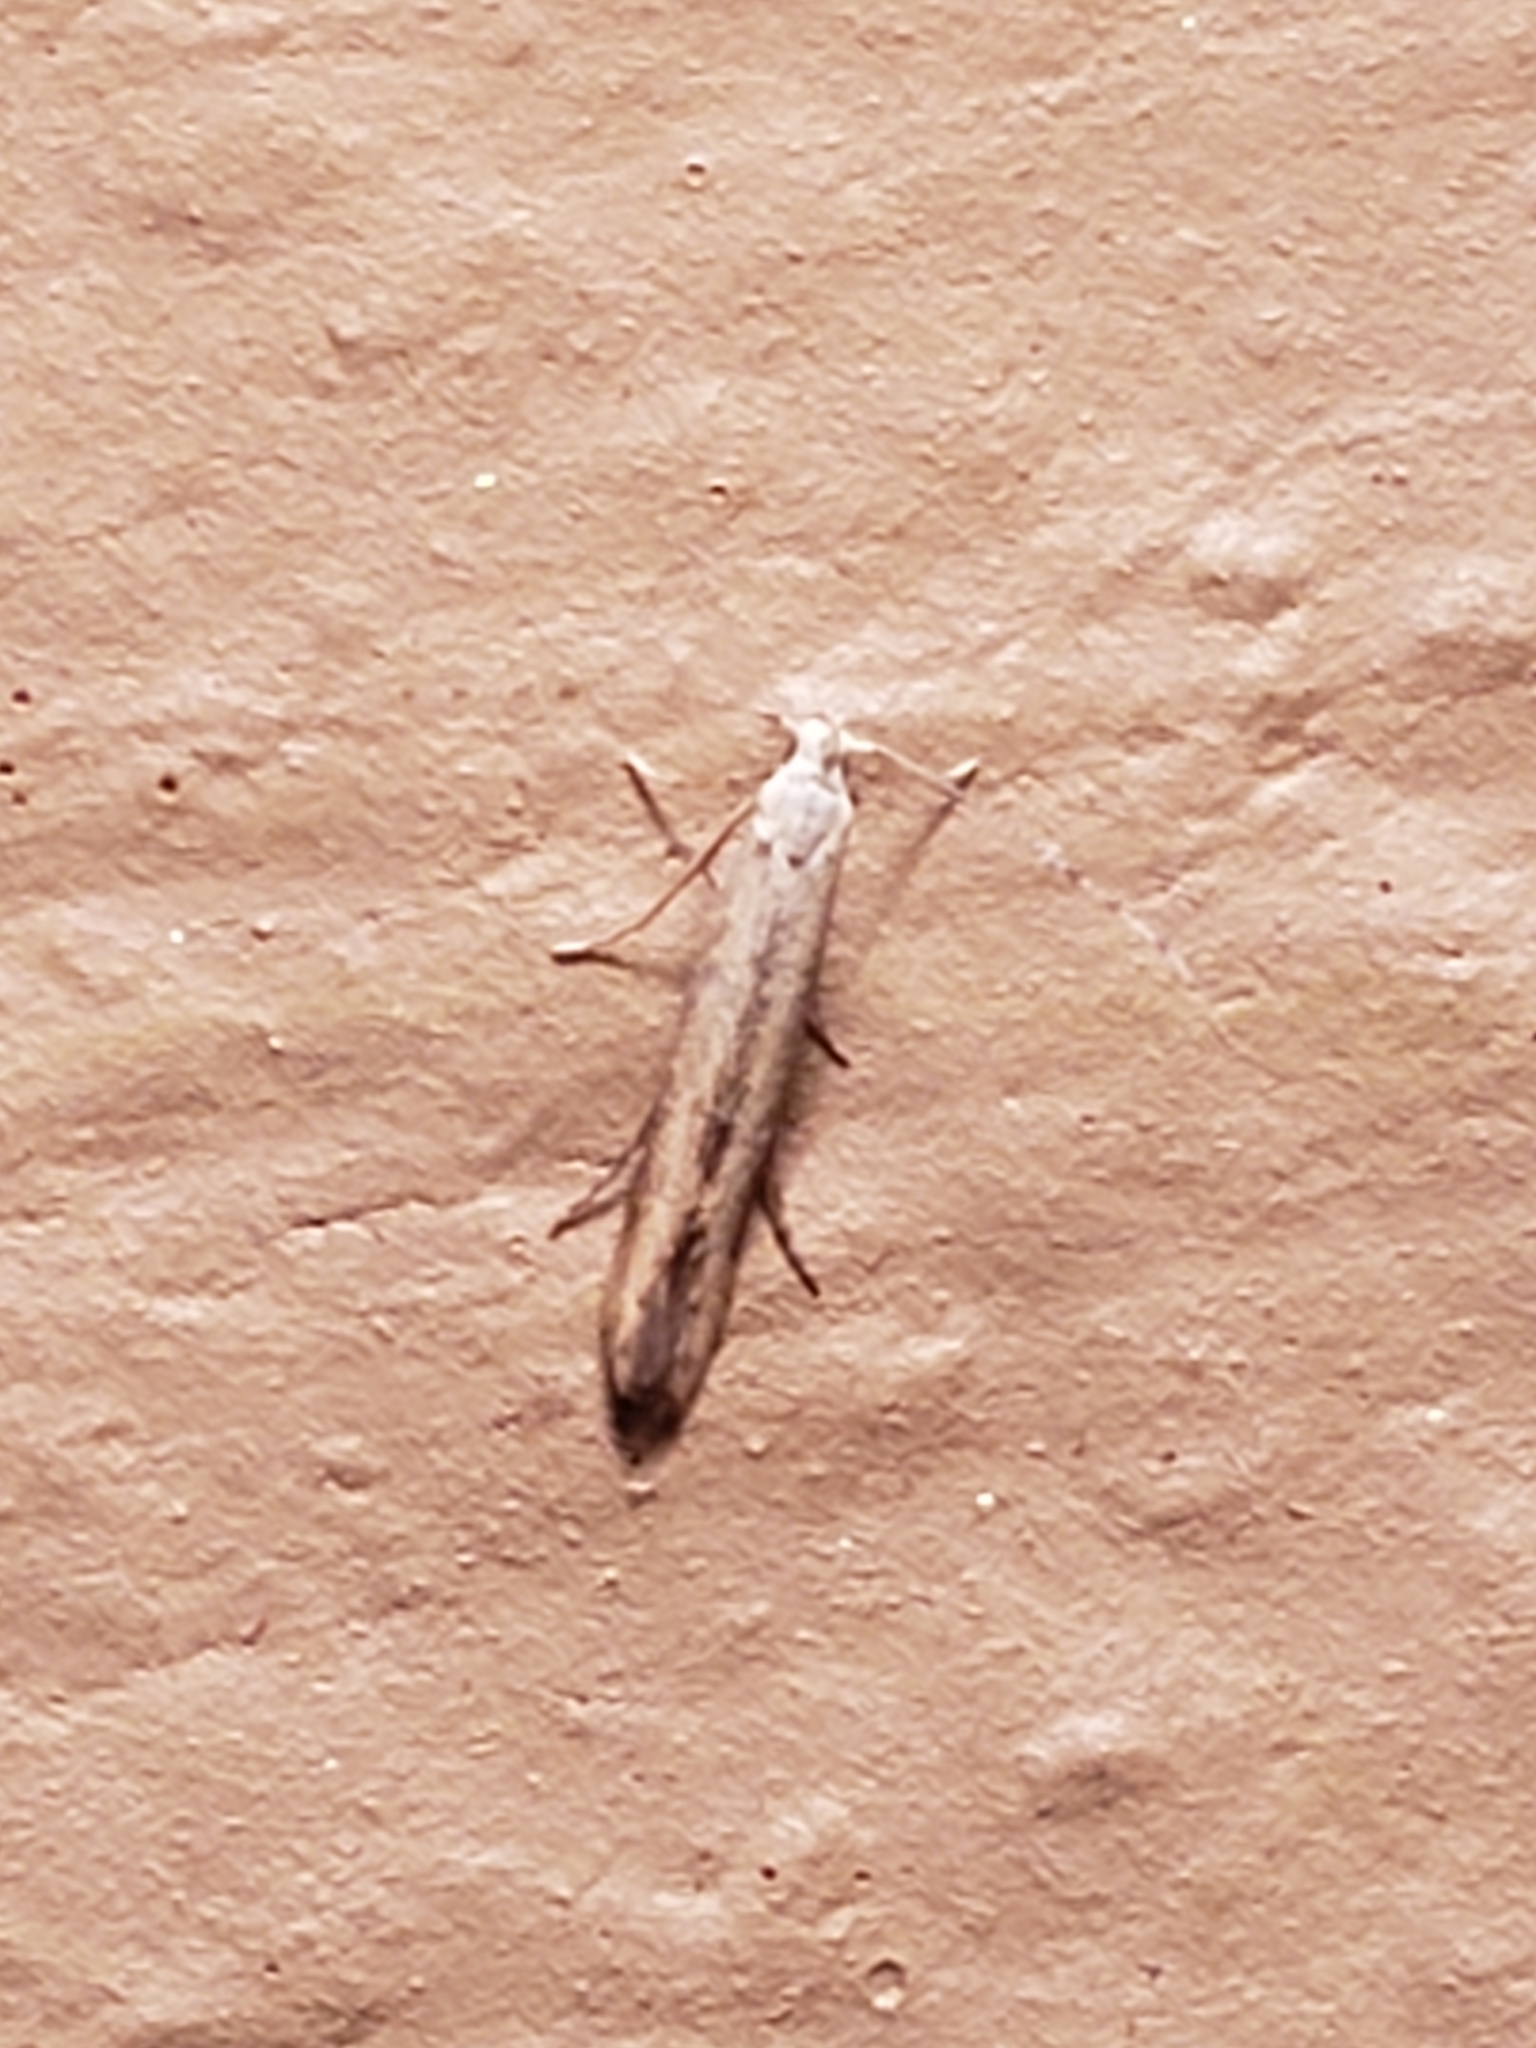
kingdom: Animalia
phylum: Arthropoda
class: Insecta
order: Lepidoptera
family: Gelechiidae
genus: Stereomita
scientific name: Stereomita andropogonis
